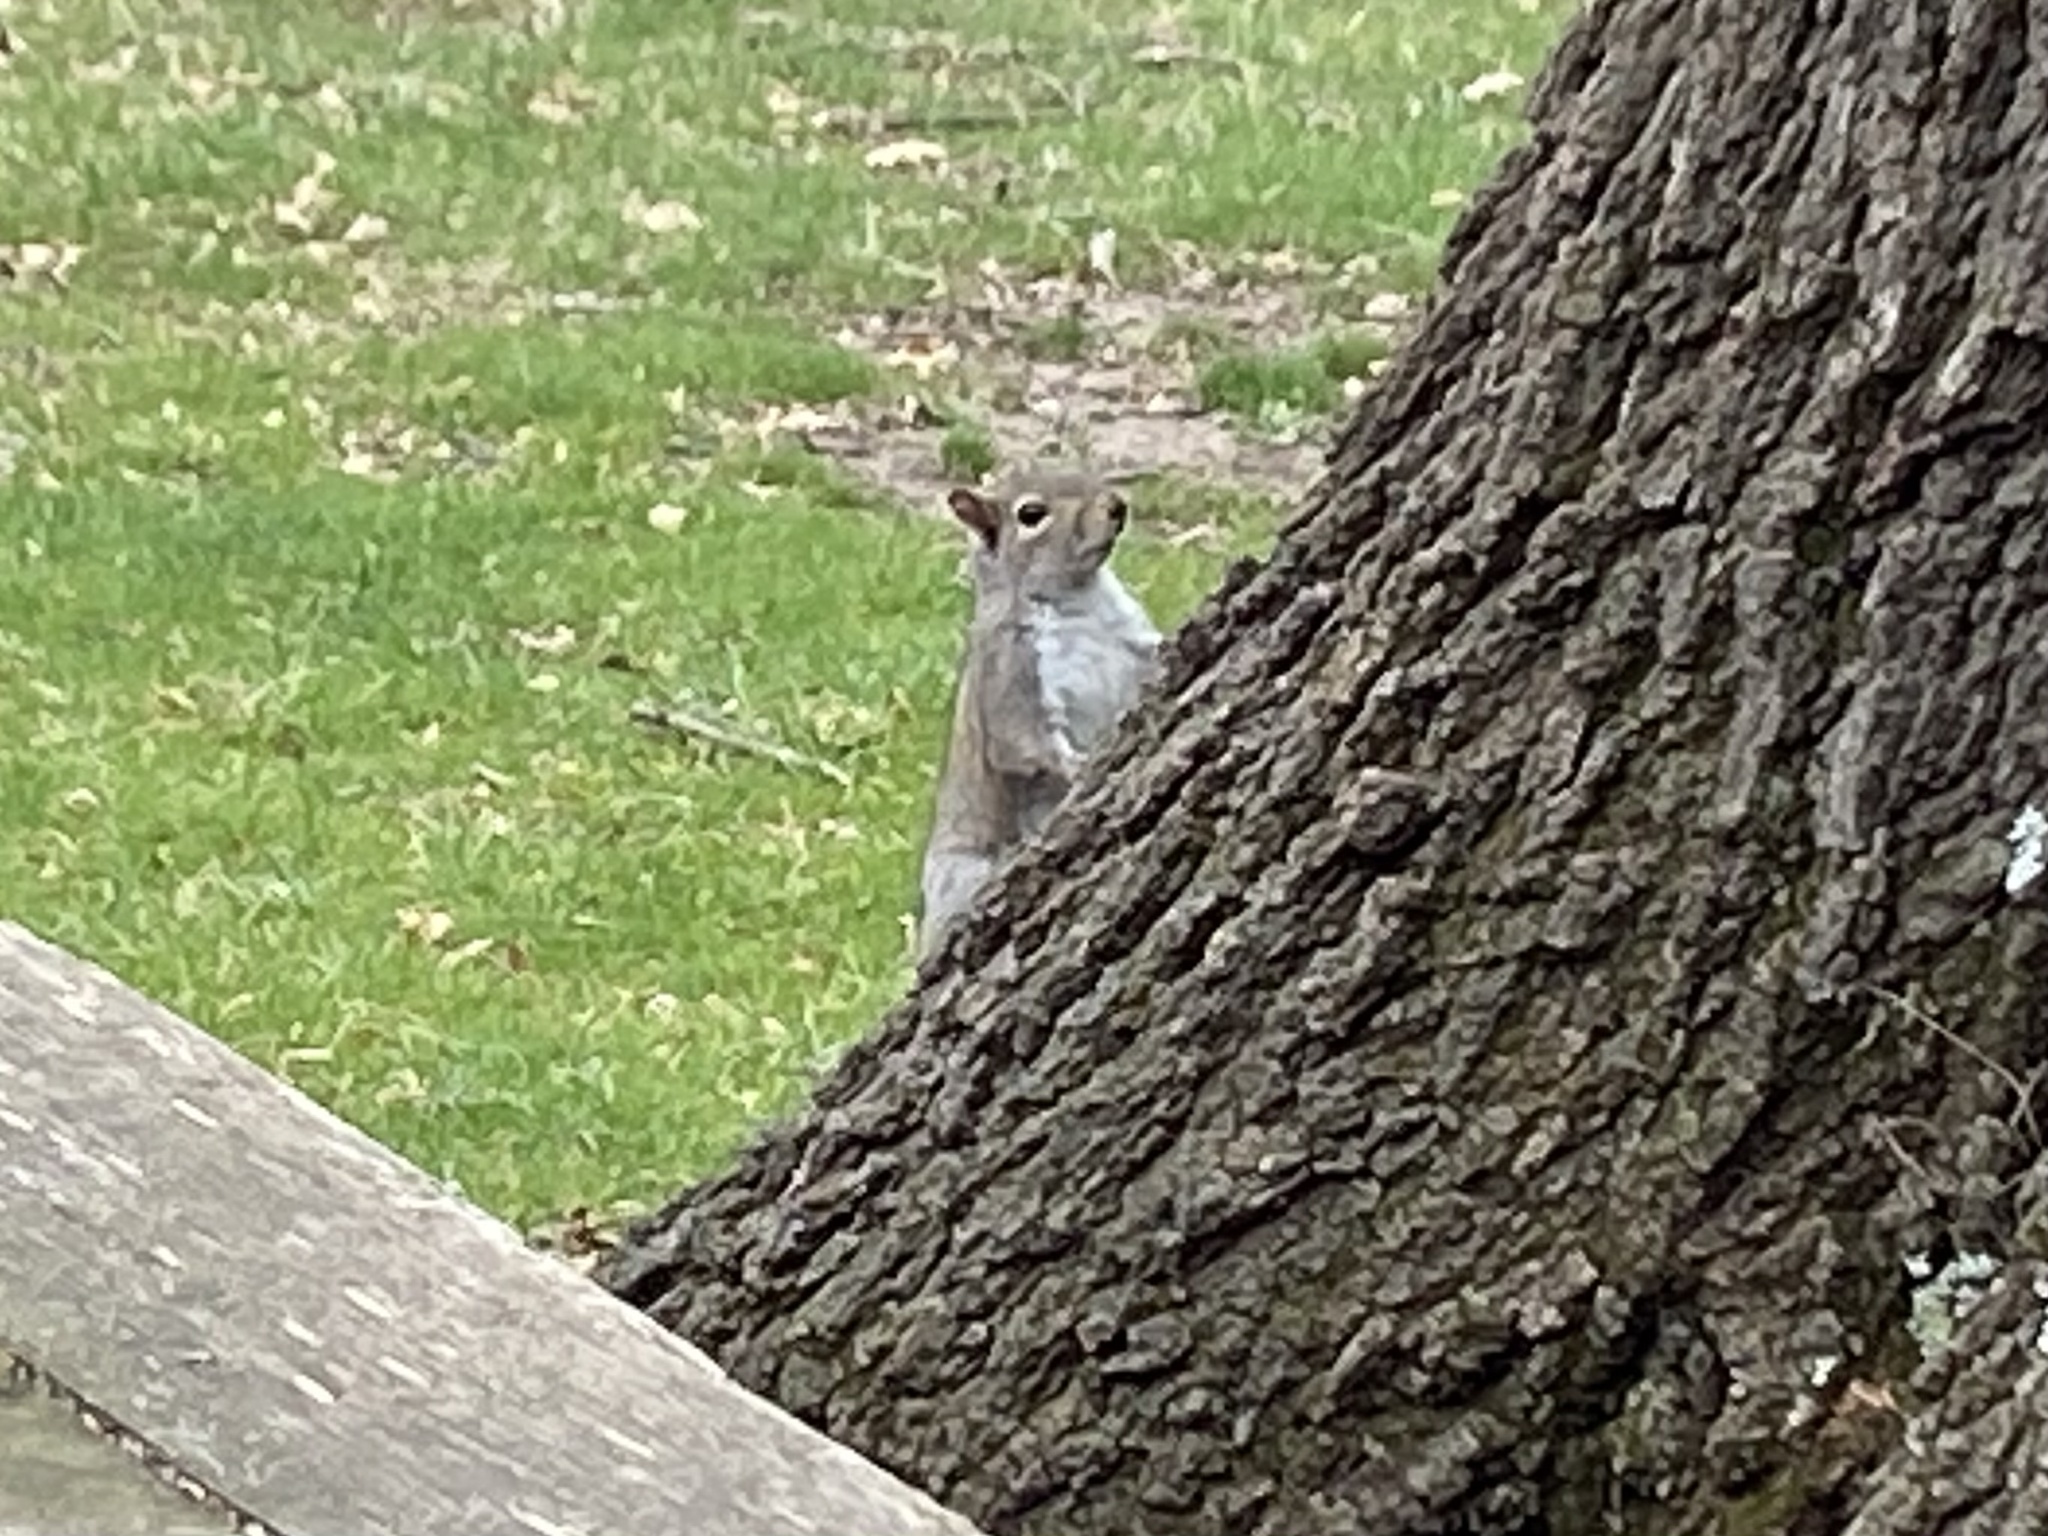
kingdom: Animalia
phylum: Chordata
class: Mammalia
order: Rodentia
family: Sciuridae
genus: Sciurus
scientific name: Sciurus carolinensis
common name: Eastern gray squirrel
